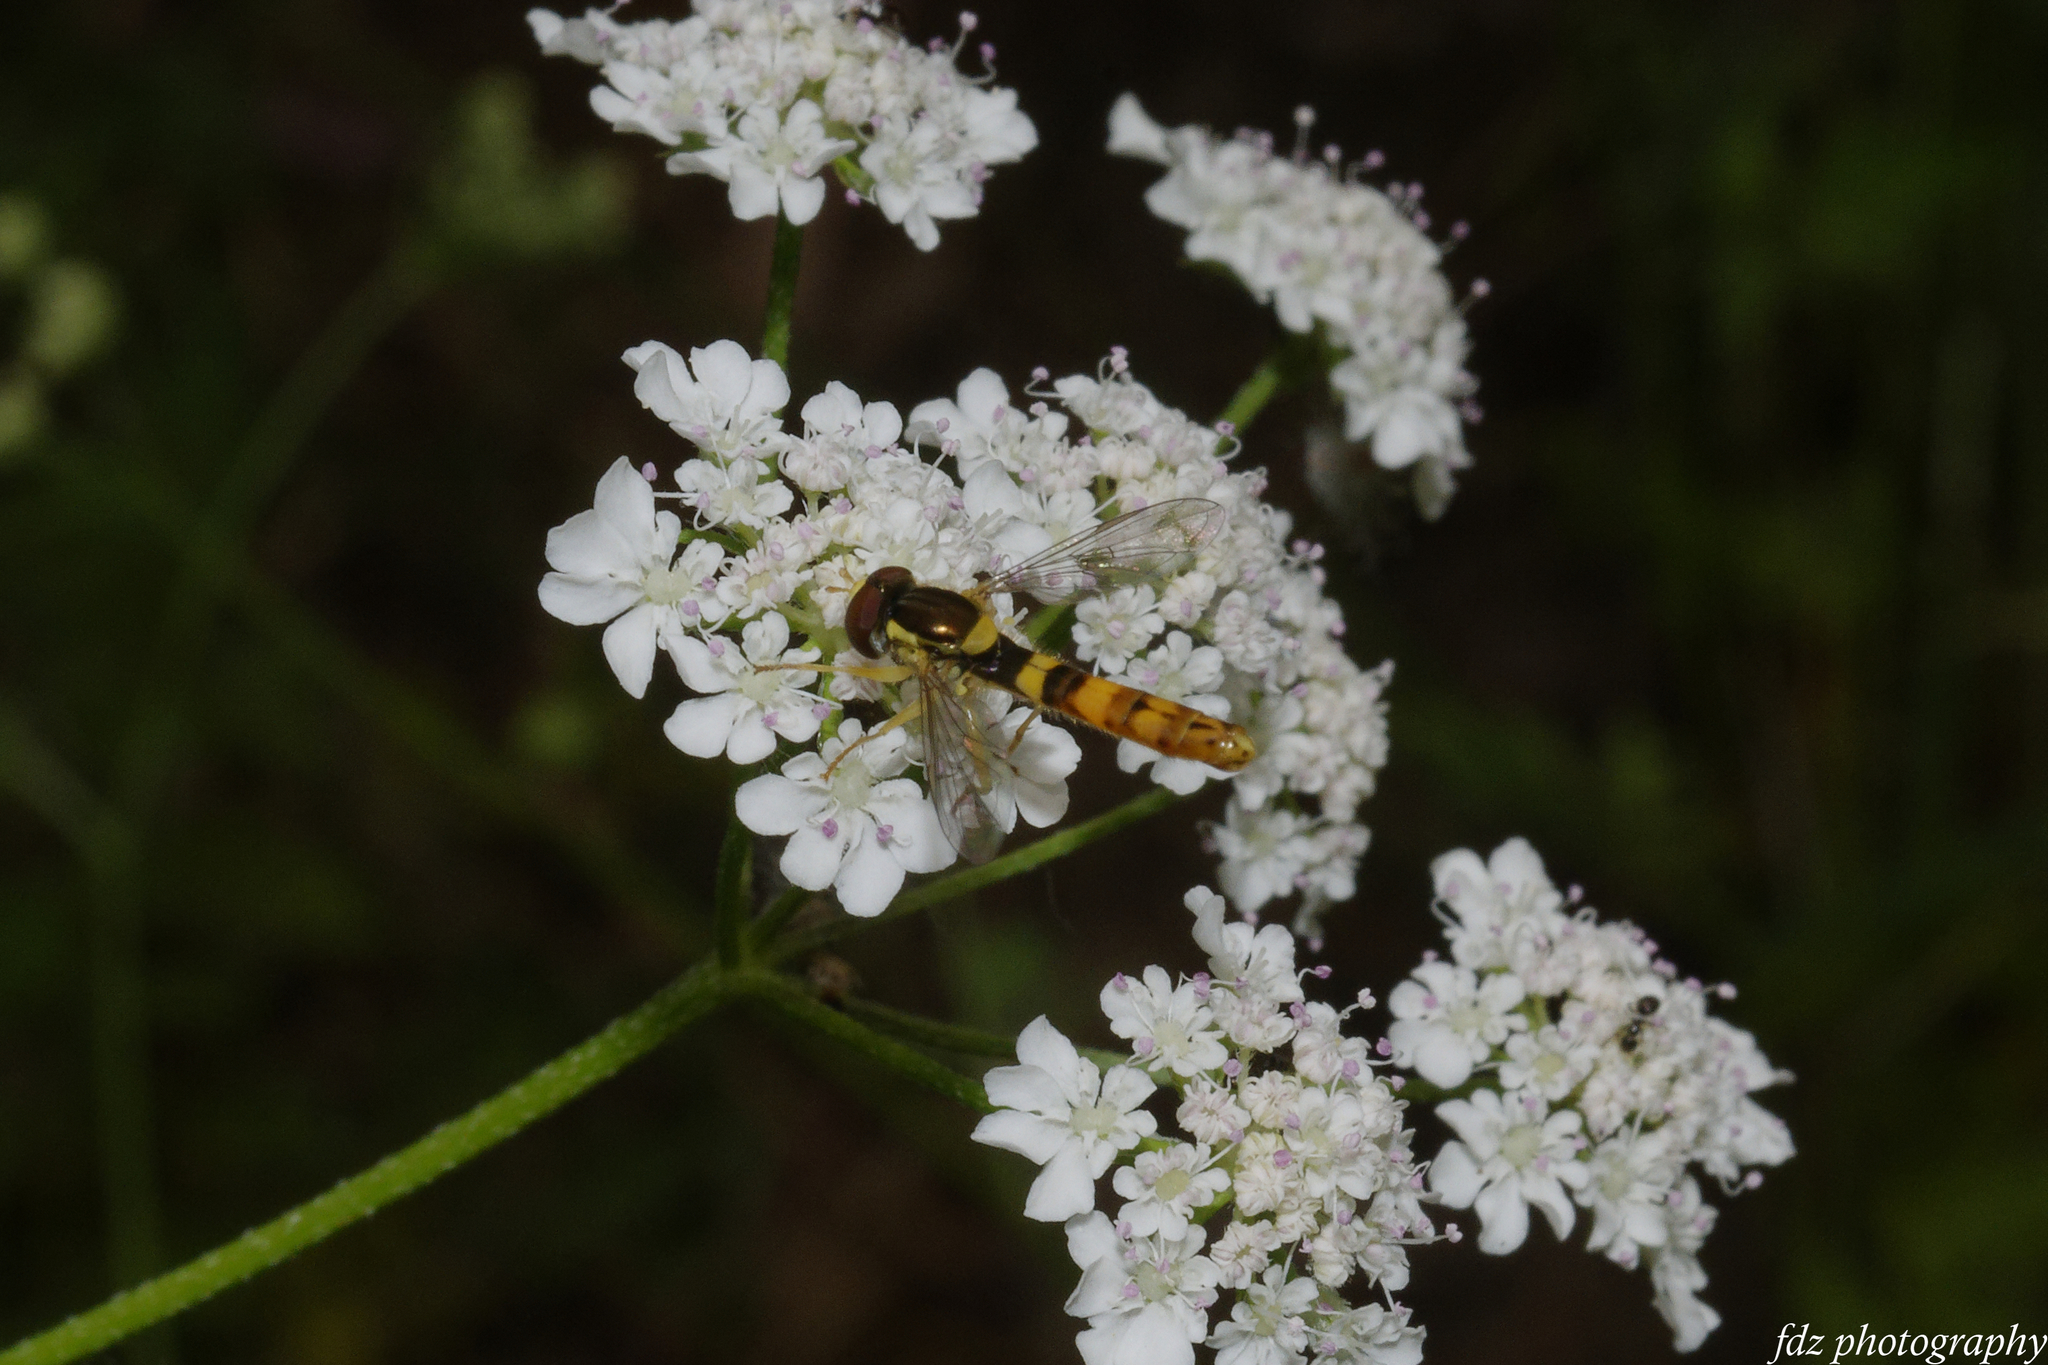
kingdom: Animalia
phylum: Arthropoda
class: Insecta
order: Diptera
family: Syrphidae
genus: Sphaerophoria
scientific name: Sphaerophoria scripta
